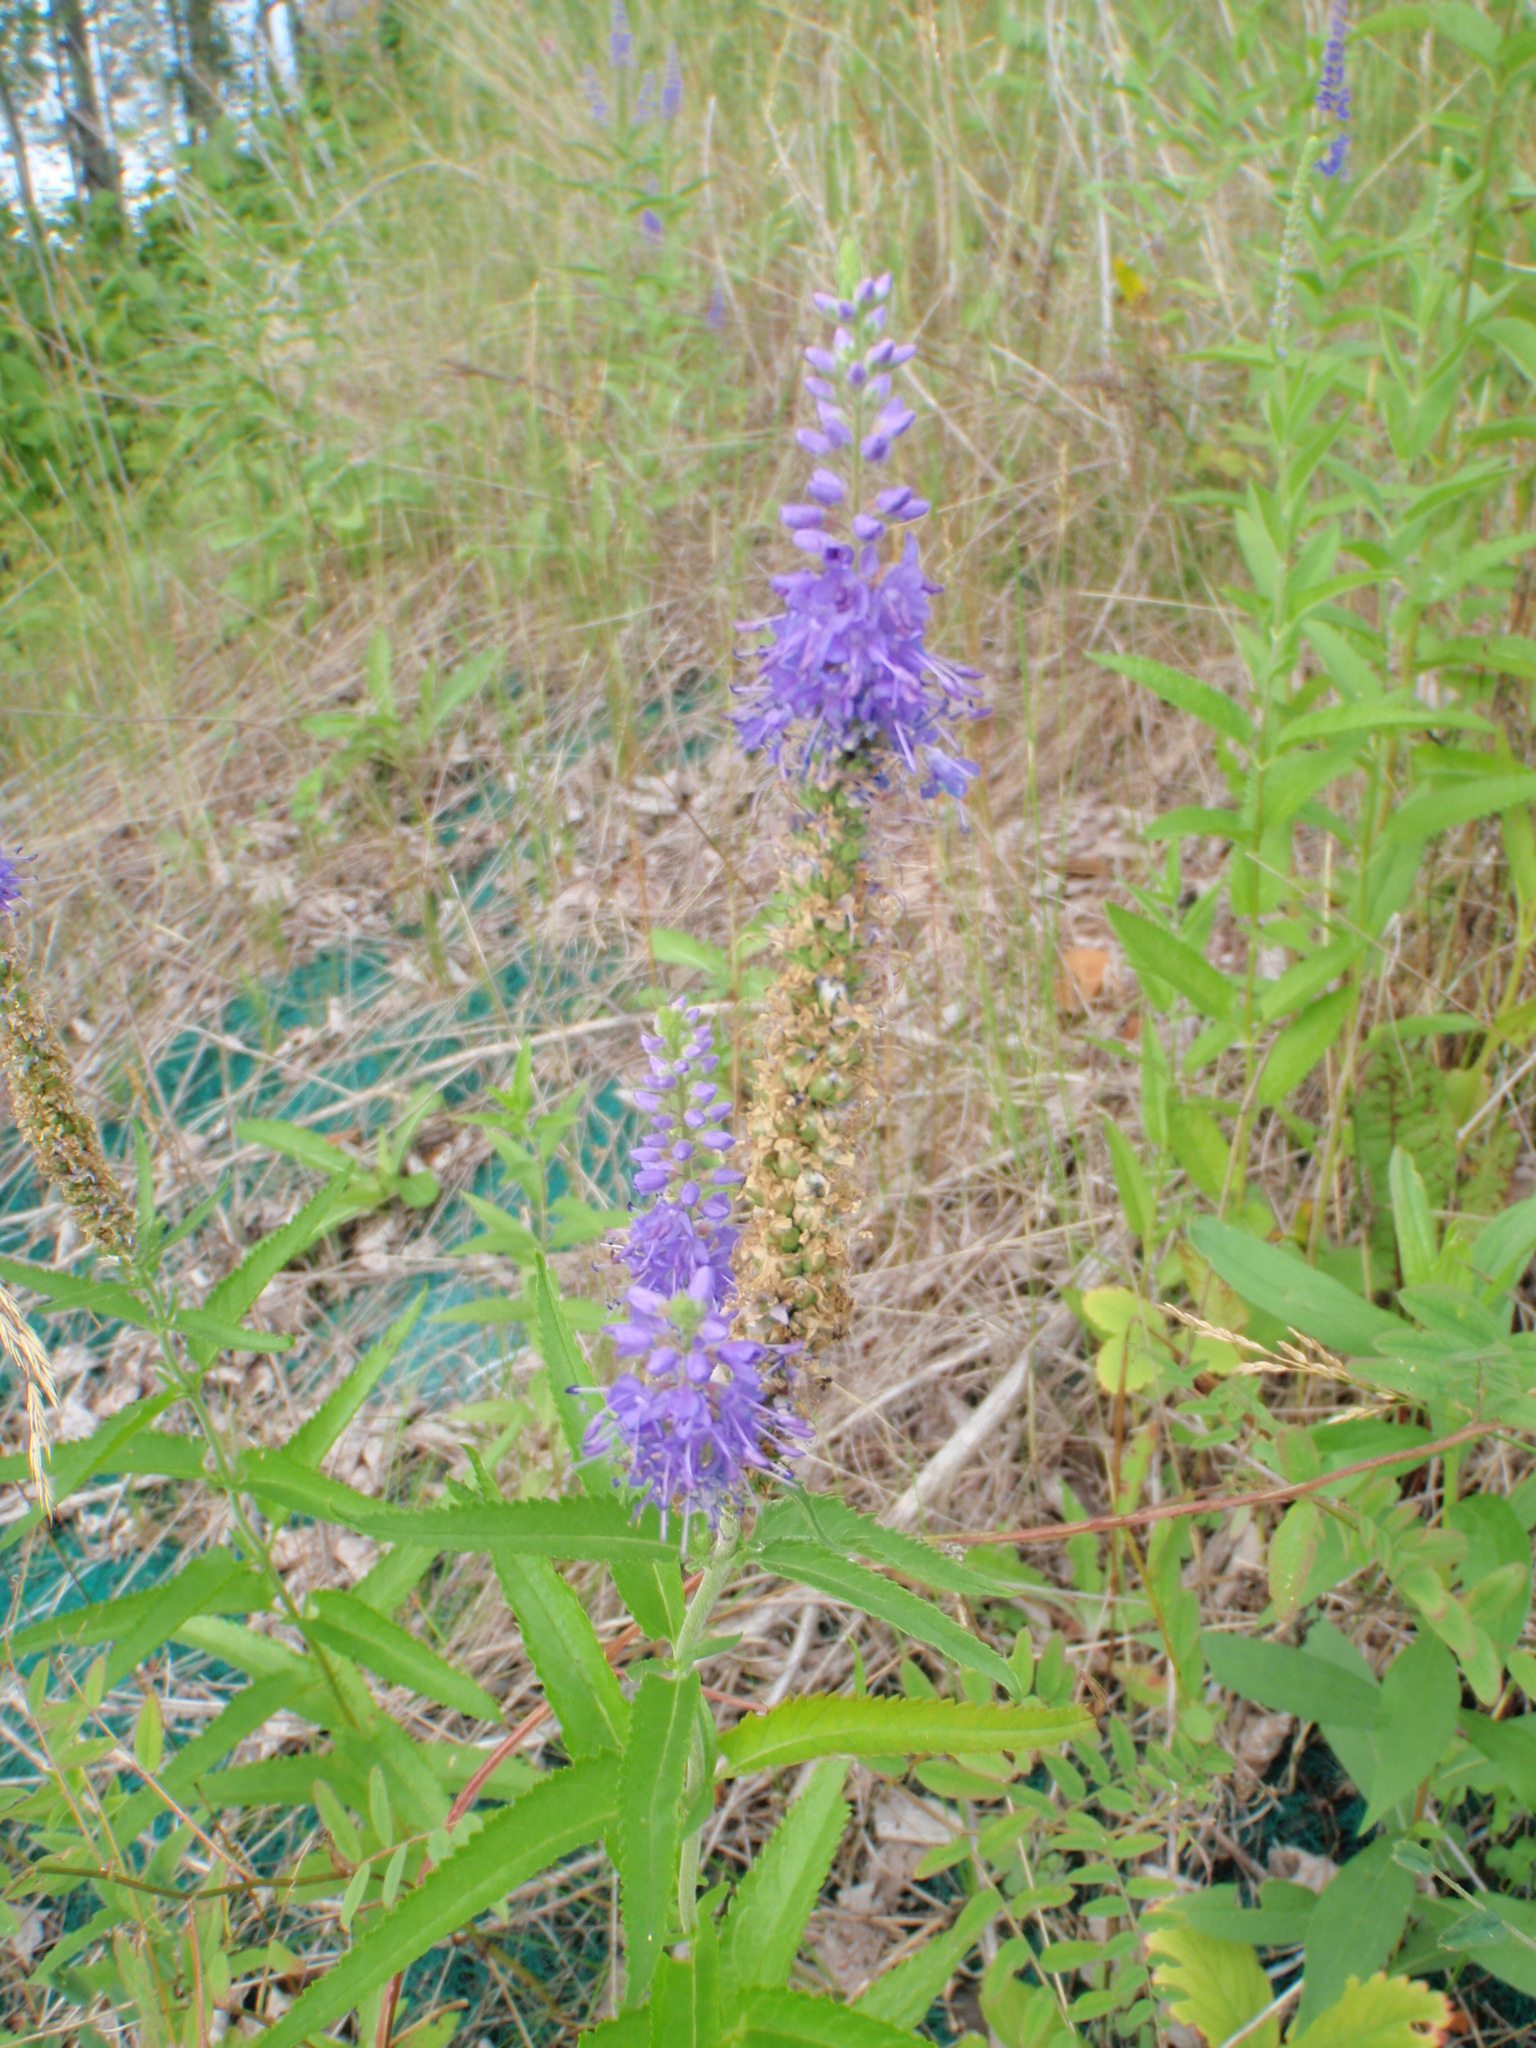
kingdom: Plantae
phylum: Tracheophyta
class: Magnoliopsida
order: Lamiales
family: Plantaginaceae
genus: Veronica
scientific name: Veronica longifolia
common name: Garden speedwell
